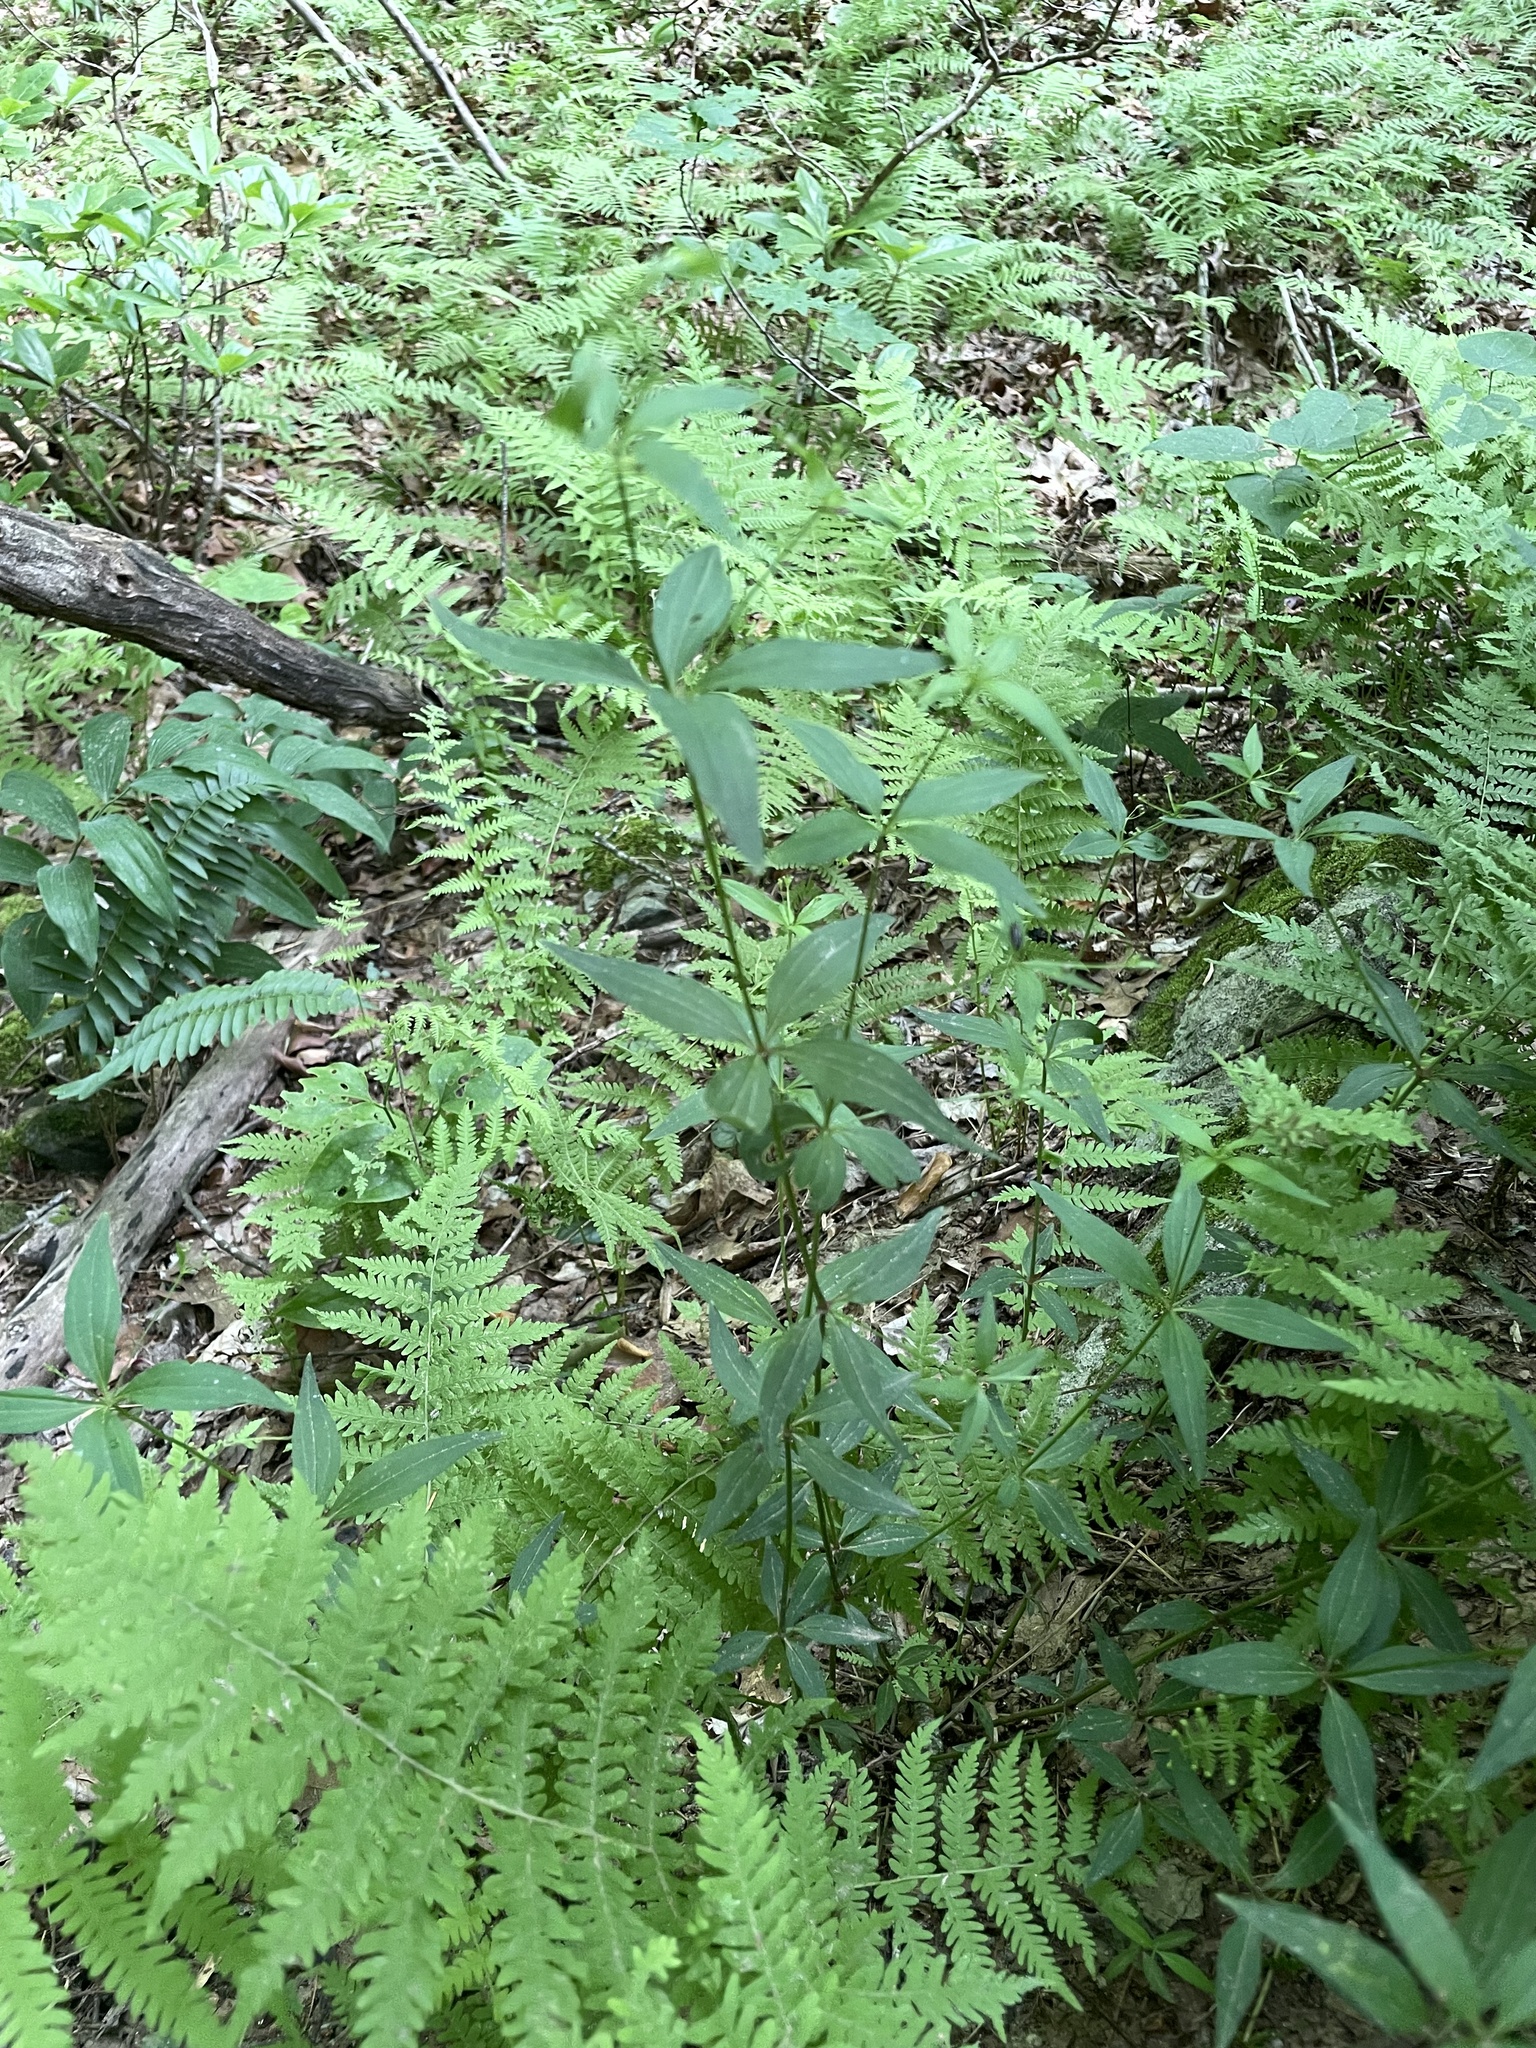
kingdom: Plantae
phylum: Tracheophyta
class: Magnoliopsida
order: Gentianales
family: Rubiaceae
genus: Galium
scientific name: Galium latifolium
